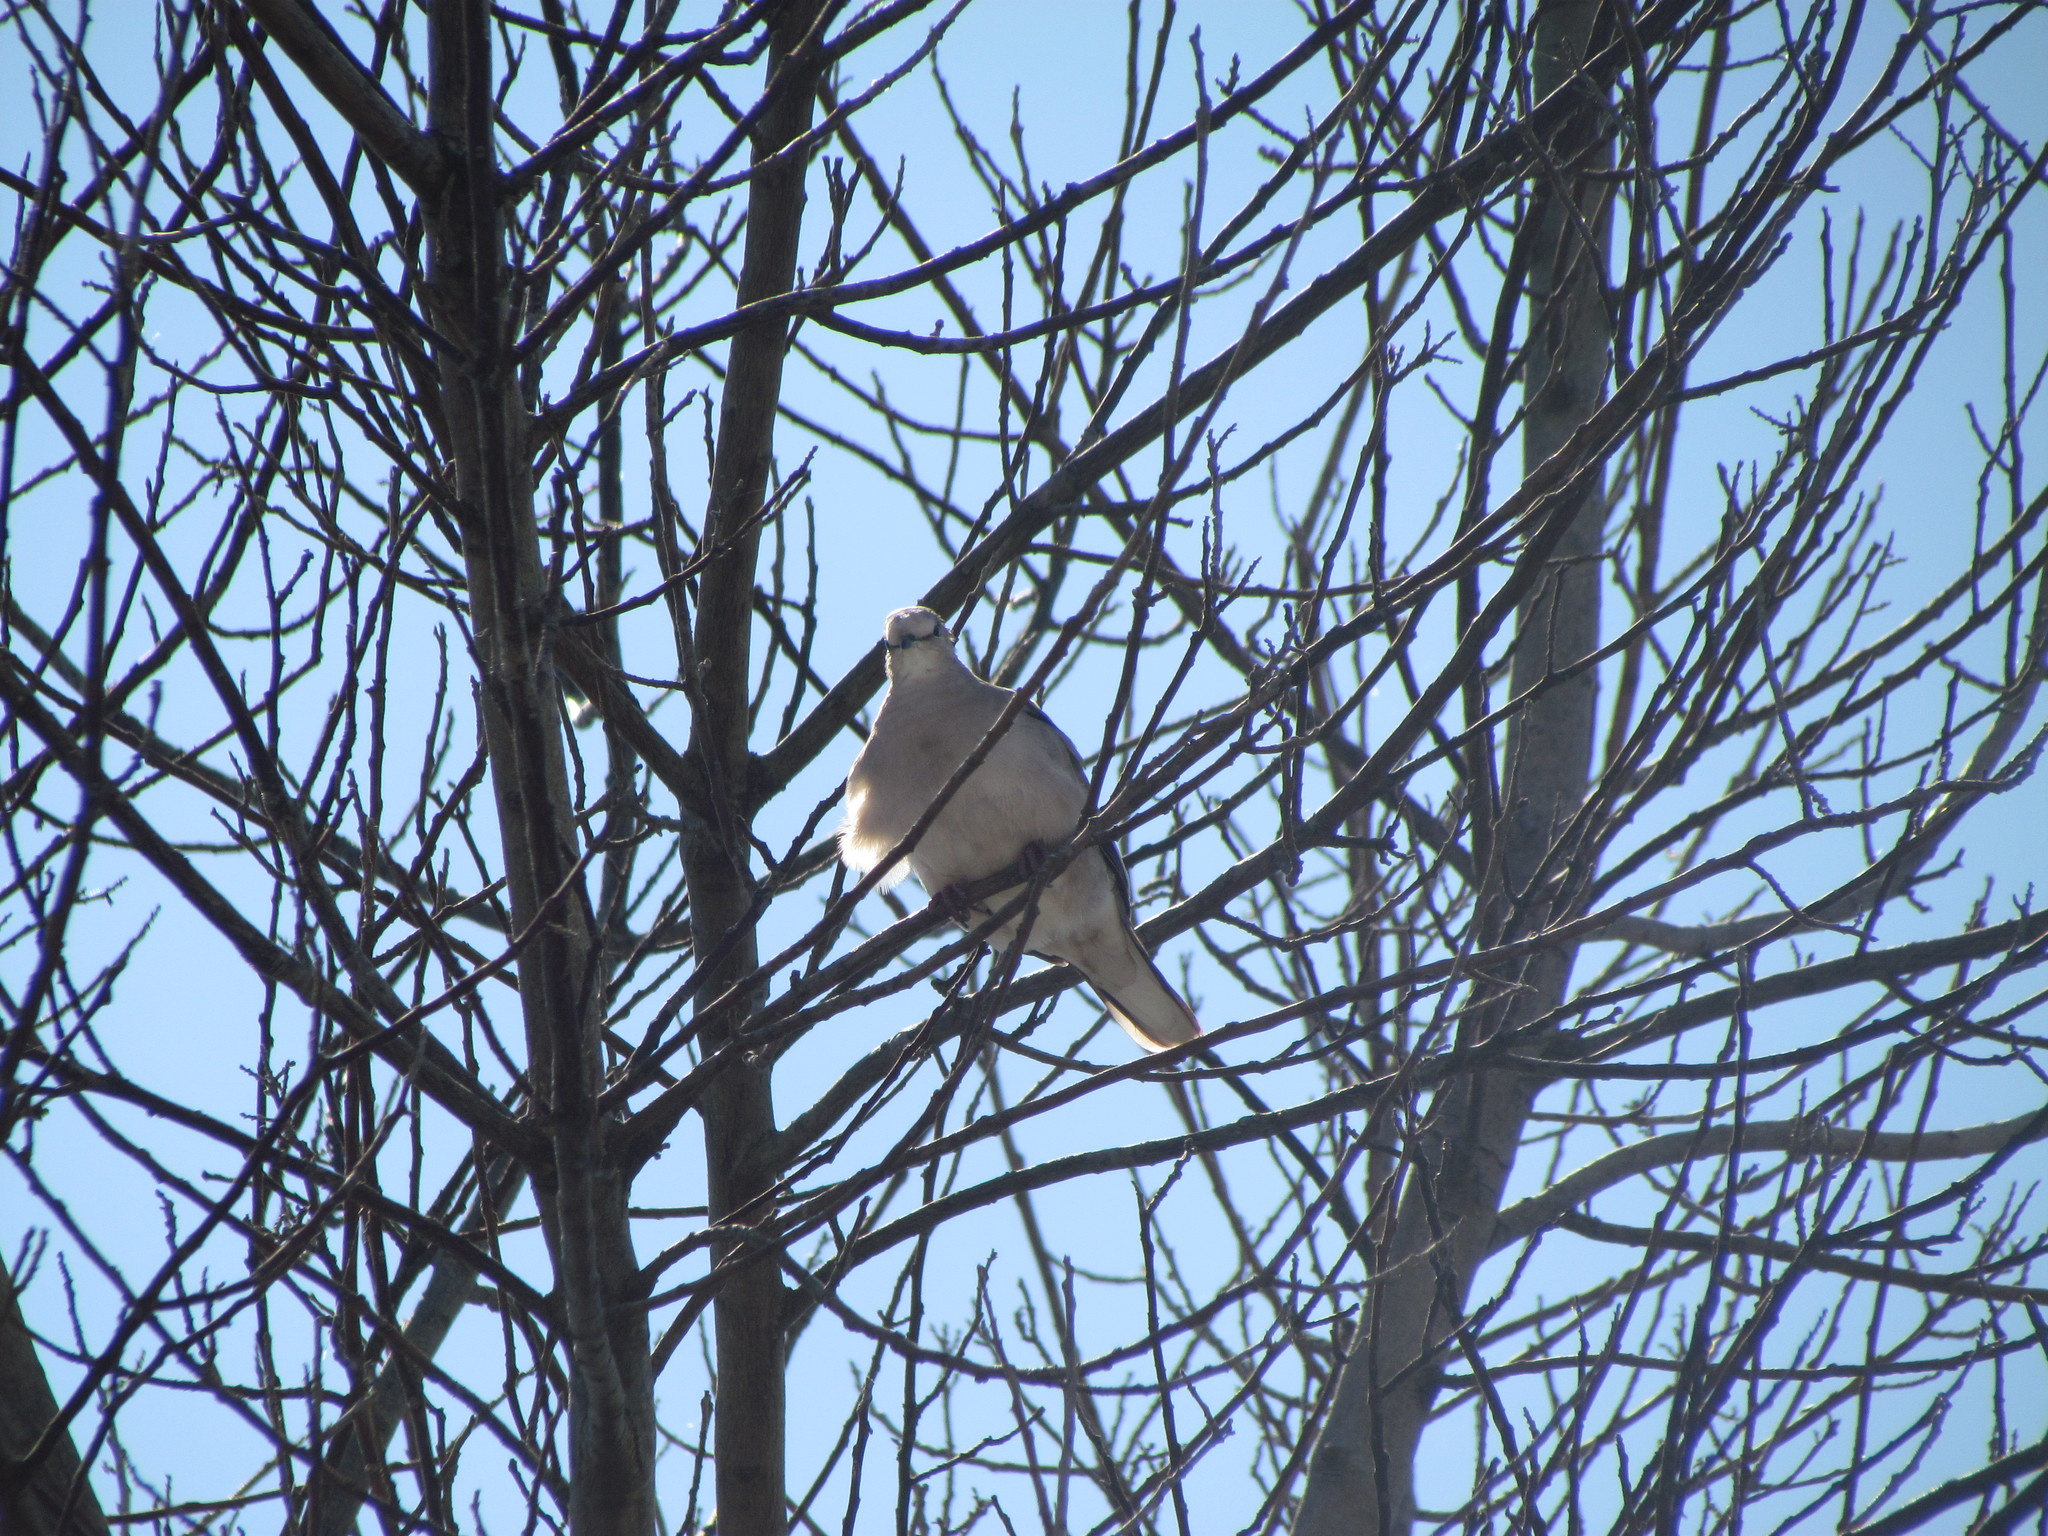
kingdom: Animalia
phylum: Chordata
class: Aves
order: Columbiformes
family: Columbidae
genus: Columbina
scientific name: Columbina picui
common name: Picui ground dove
